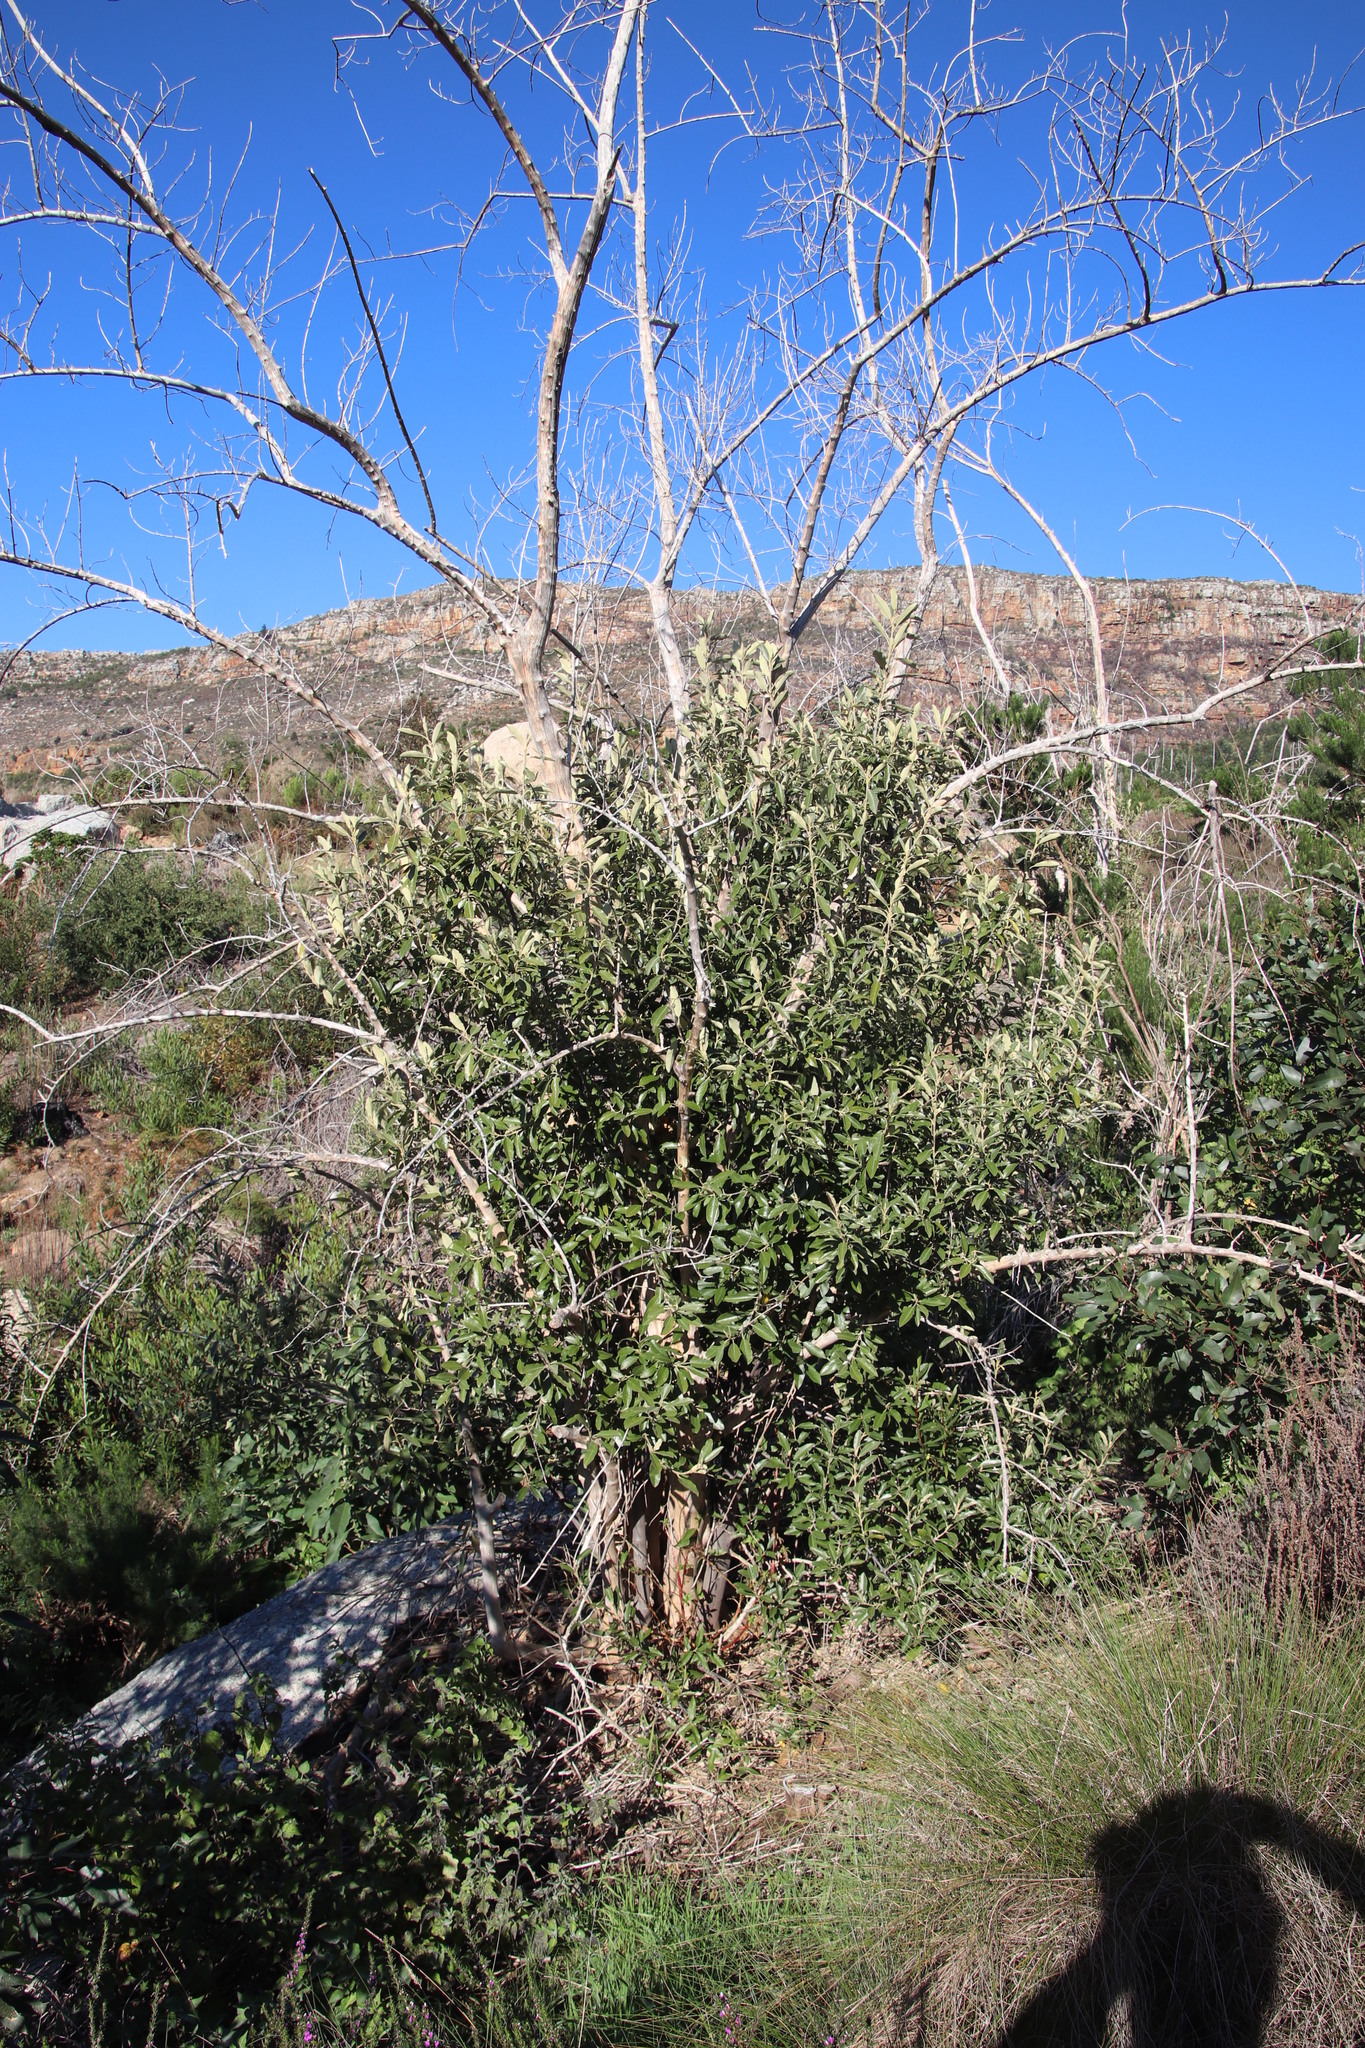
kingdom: Plantae
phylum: Tracheophyta
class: Magnoliopsida
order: Malpighiales
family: Achariaceae
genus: Kiggelaria
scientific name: Kiggelaria africana
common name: Wild peach
